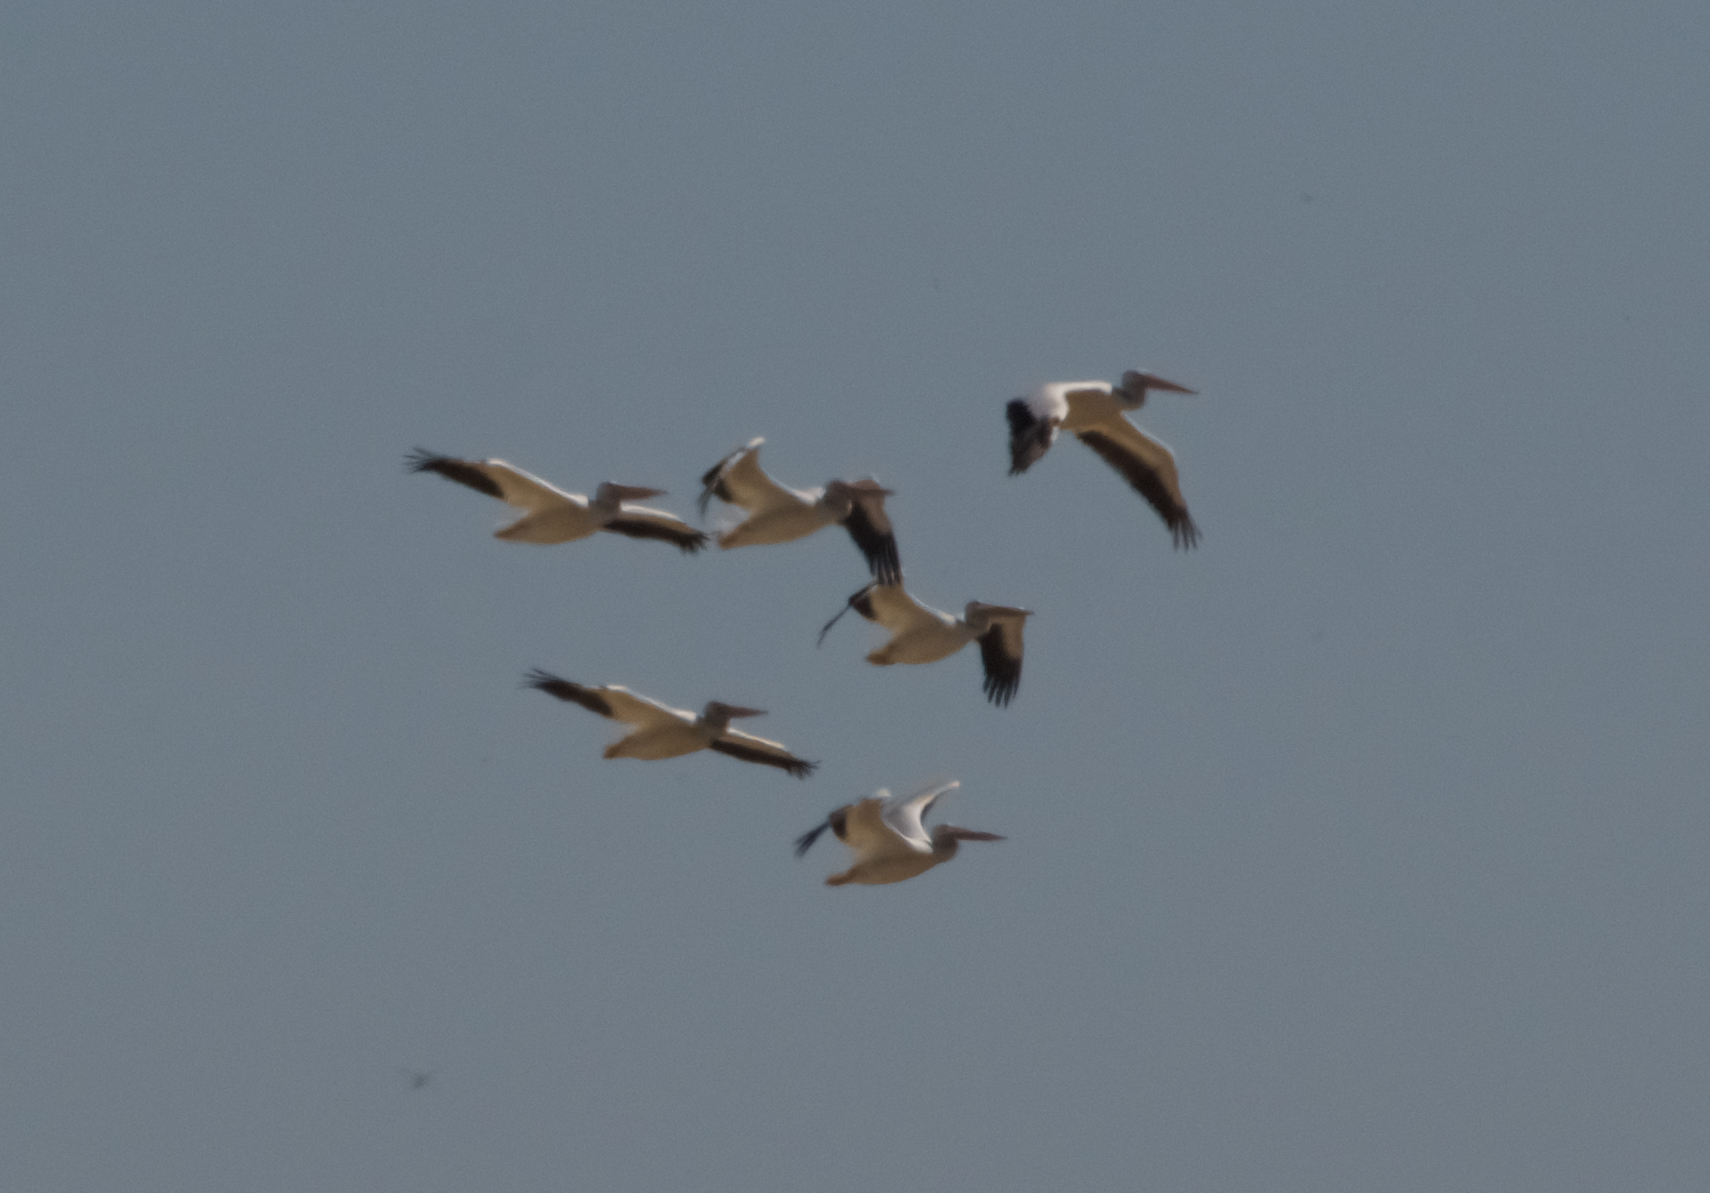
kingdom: Animalia
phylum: Chordata
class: Aves
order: Pelecaniformes
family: Pelecanidae
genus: Pelecanus
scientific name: Pelecanus erythrorhynchos
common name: American white pelican
